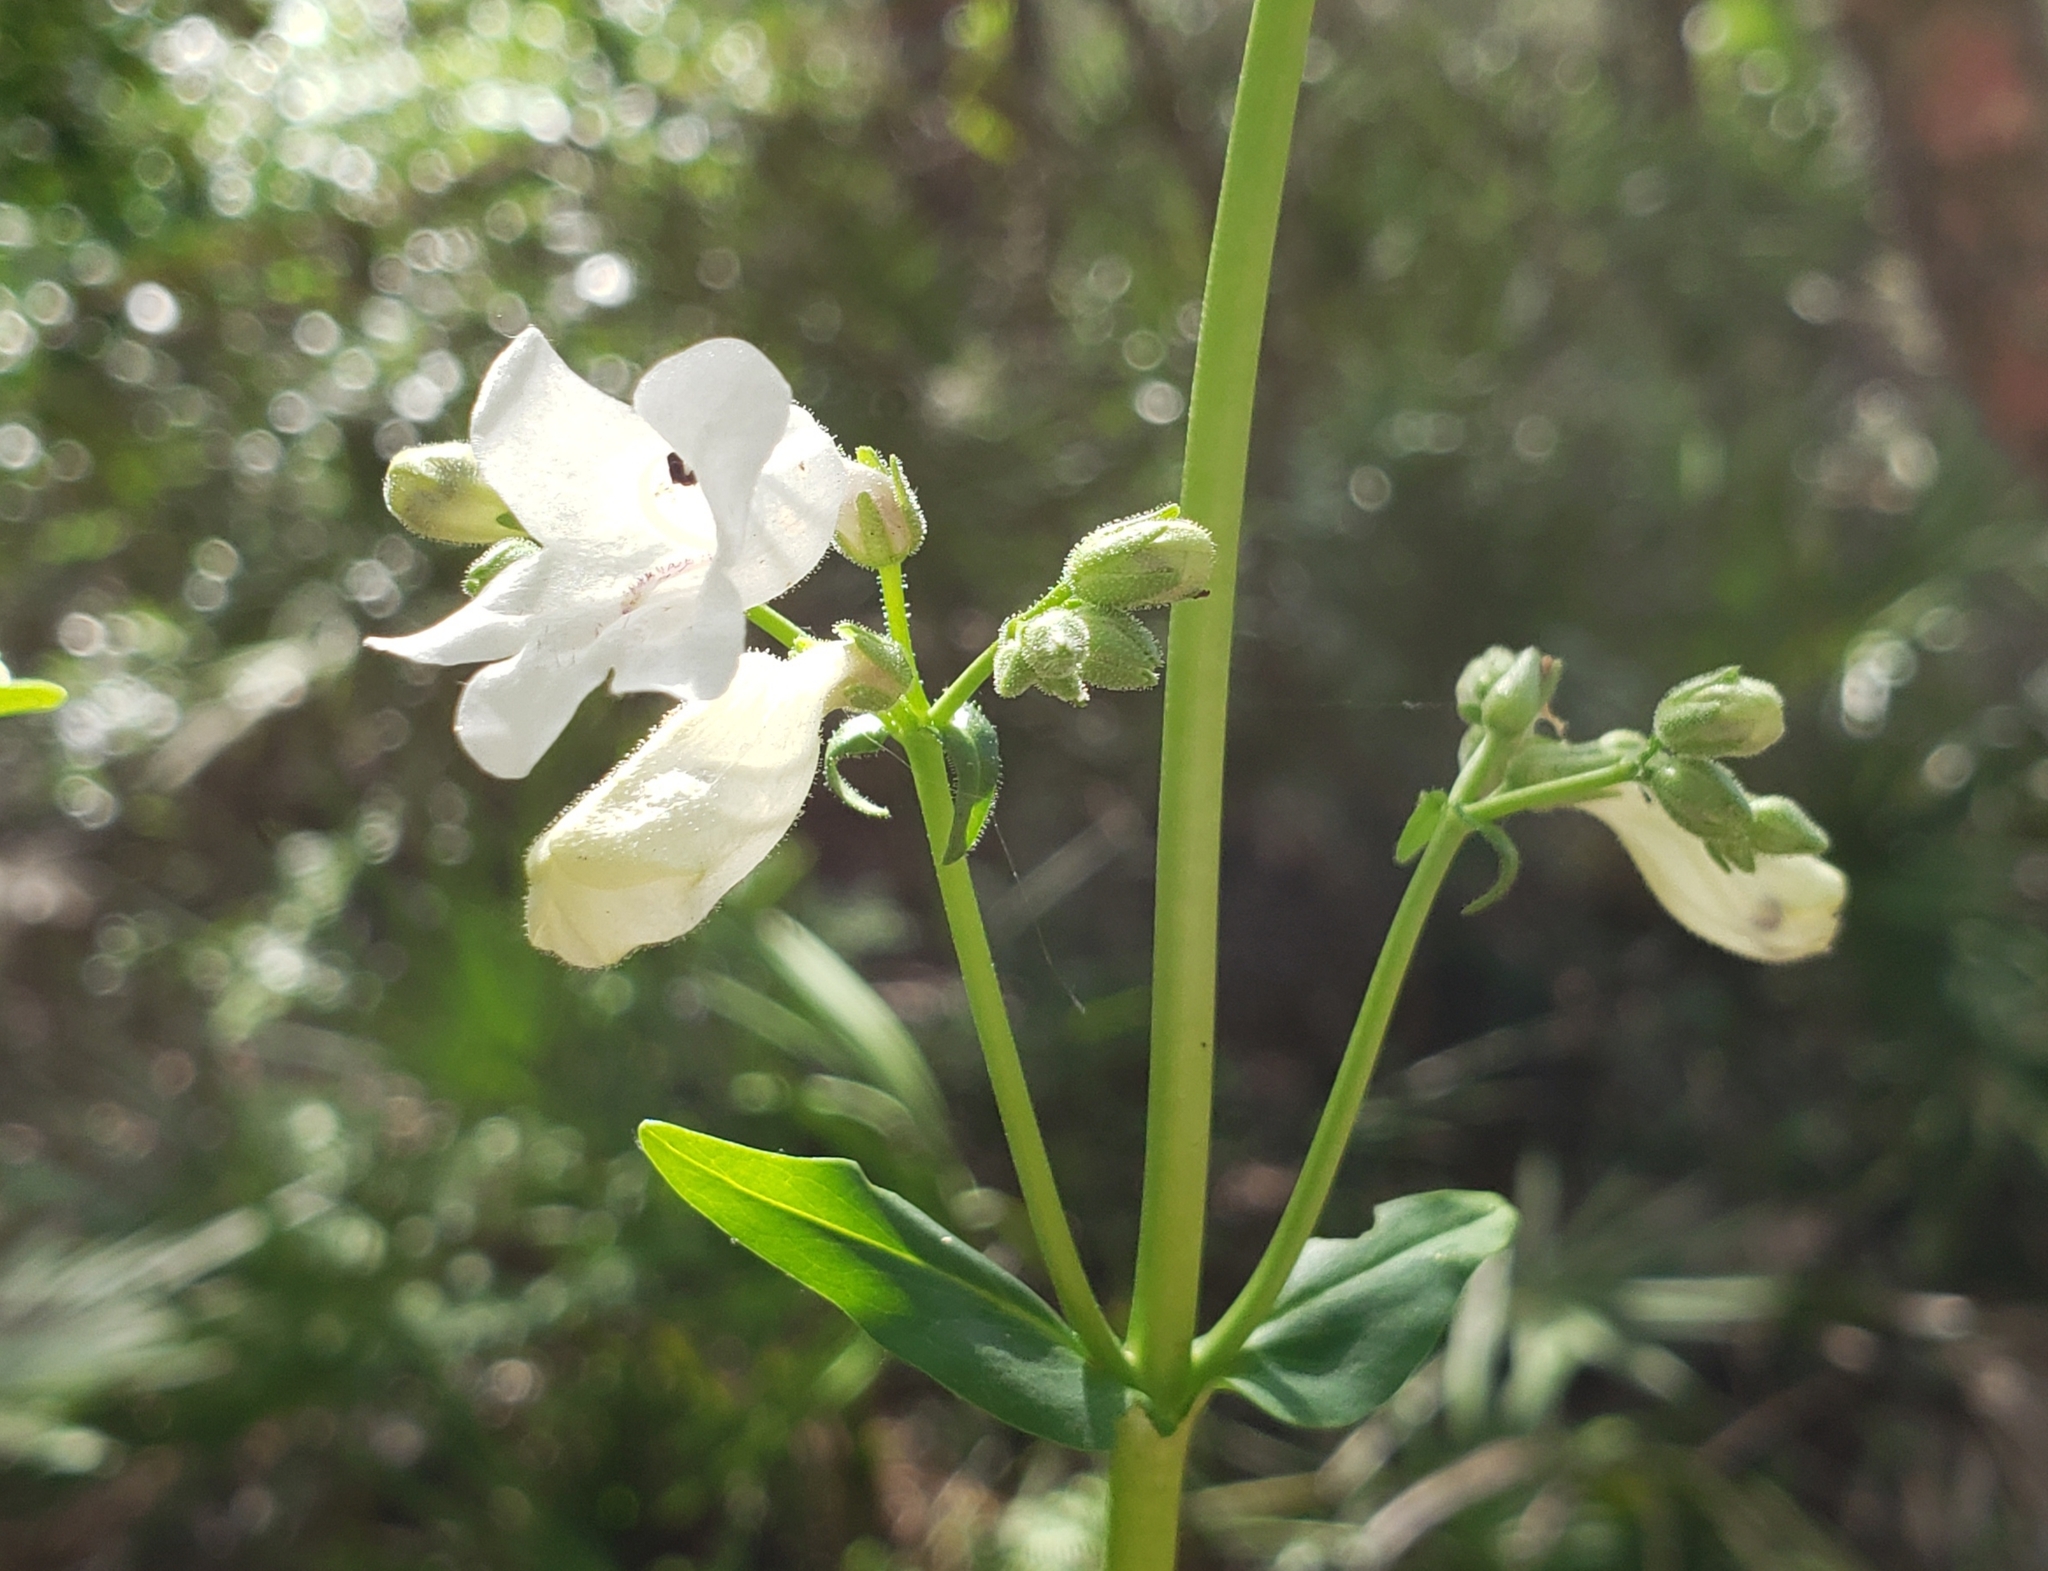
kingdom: Plantae
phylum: Tracheophyta
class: Magnoliopsida
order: Lamiales
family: Plantaginaceae
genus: Penstemon
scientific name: Penstemon multiflorus
